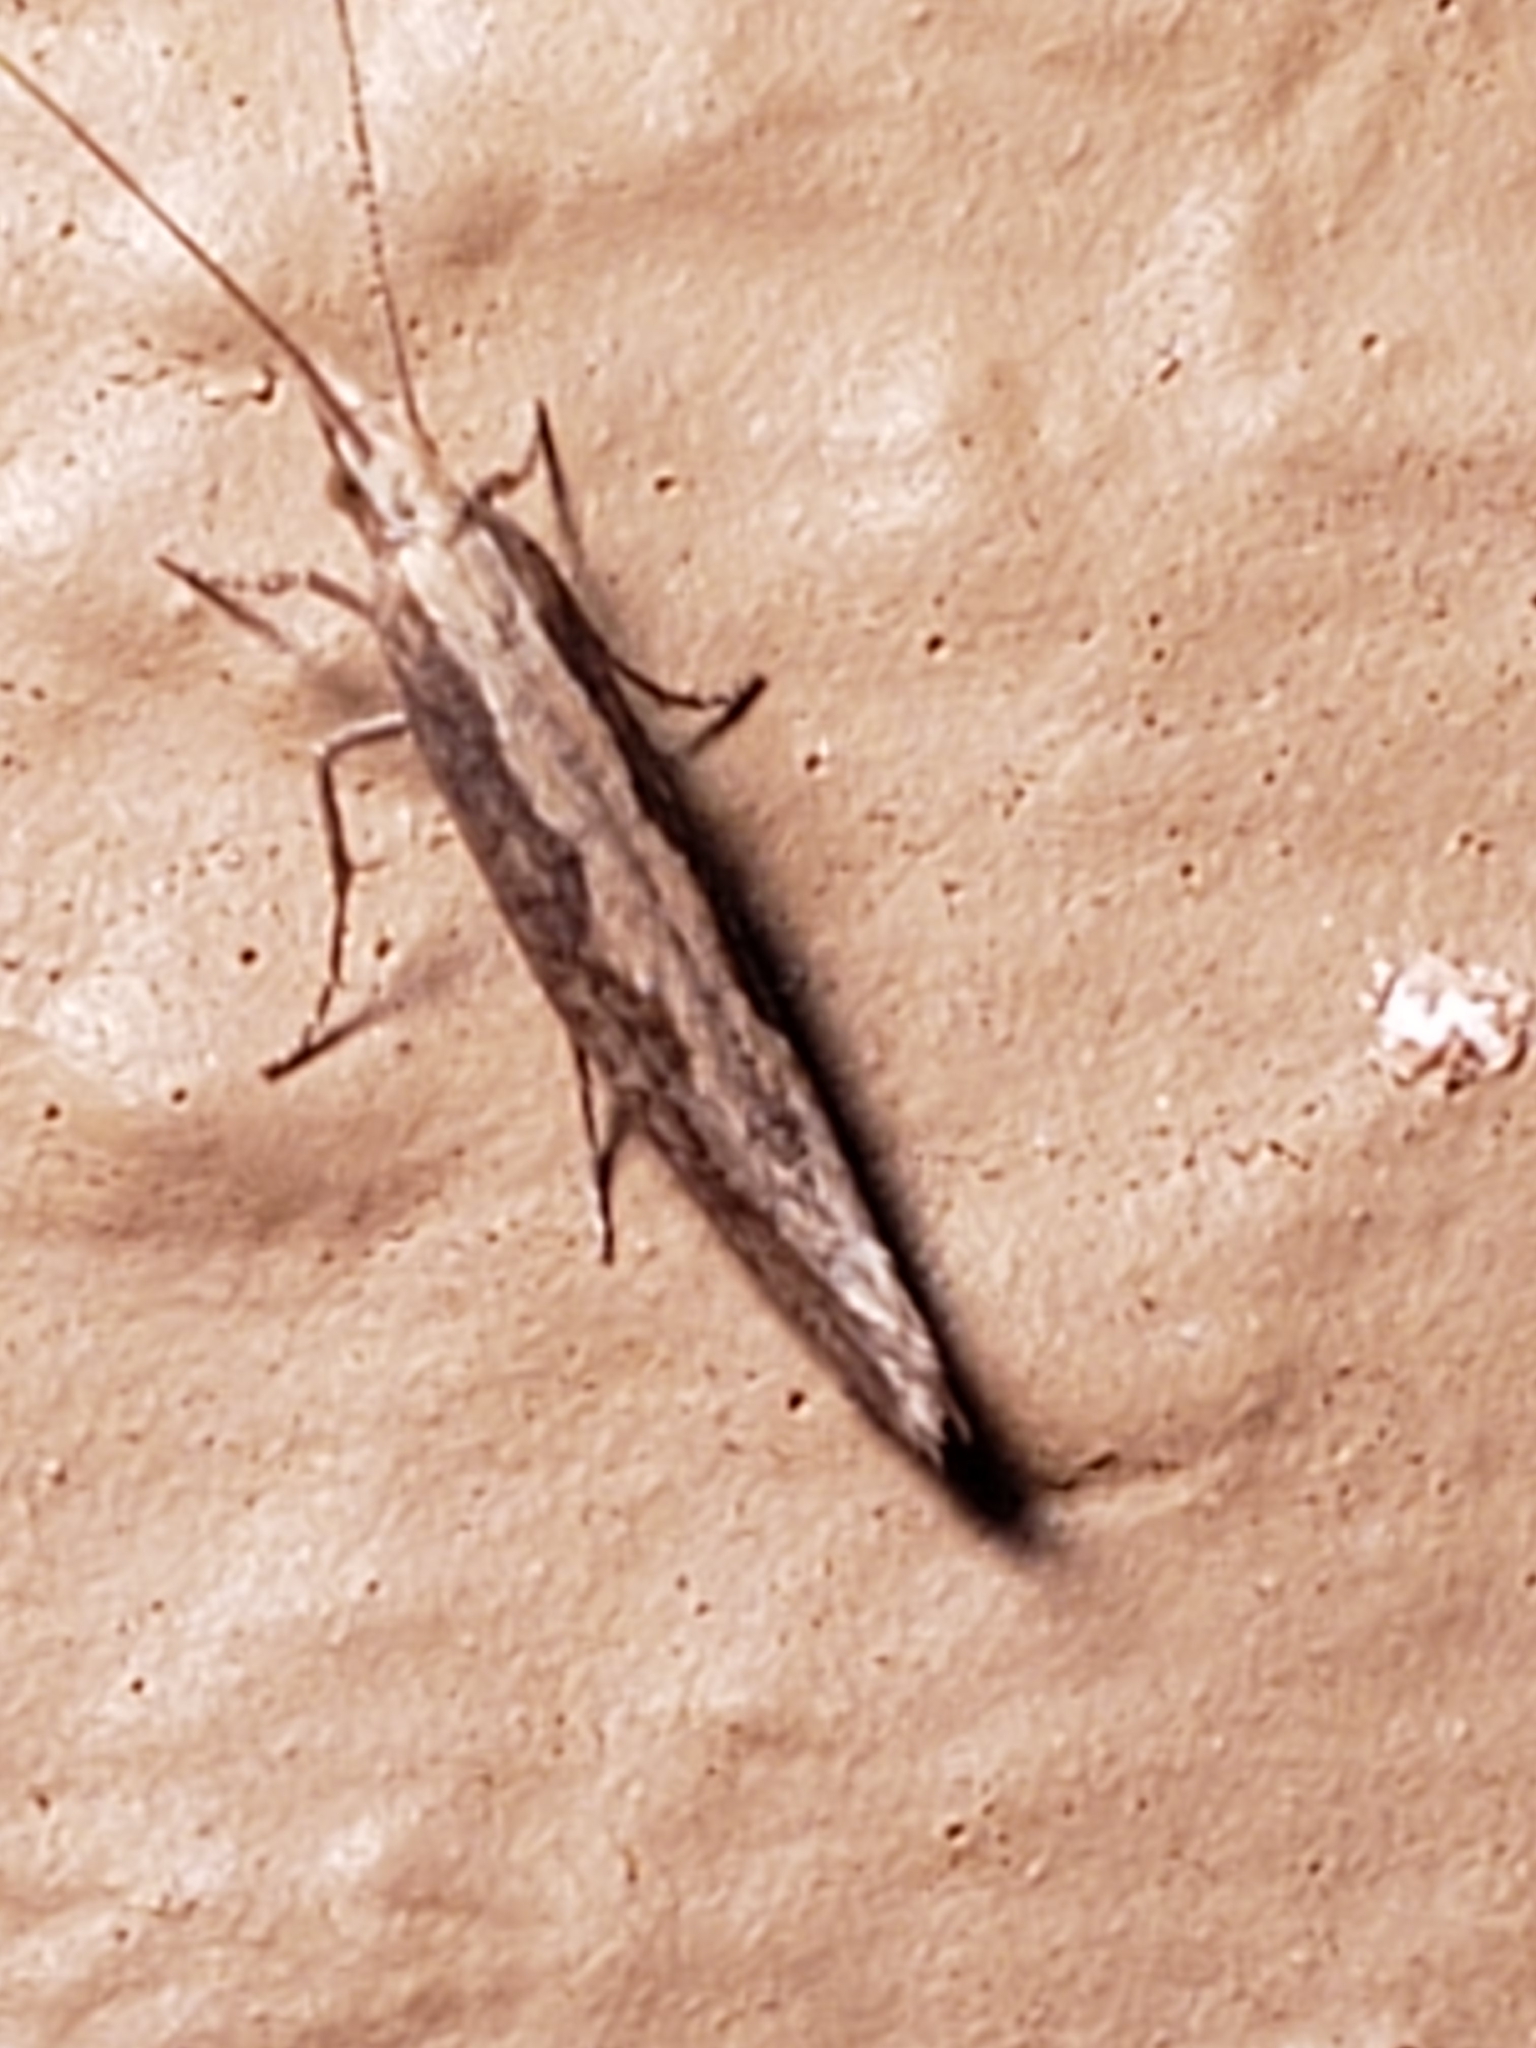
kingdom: Animalia
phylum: Arthropoda
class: Insecta
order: Lepidoptera
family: Plutellidae
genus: Plutella
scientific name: Plutella xylostella
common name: Diamond-back moth
